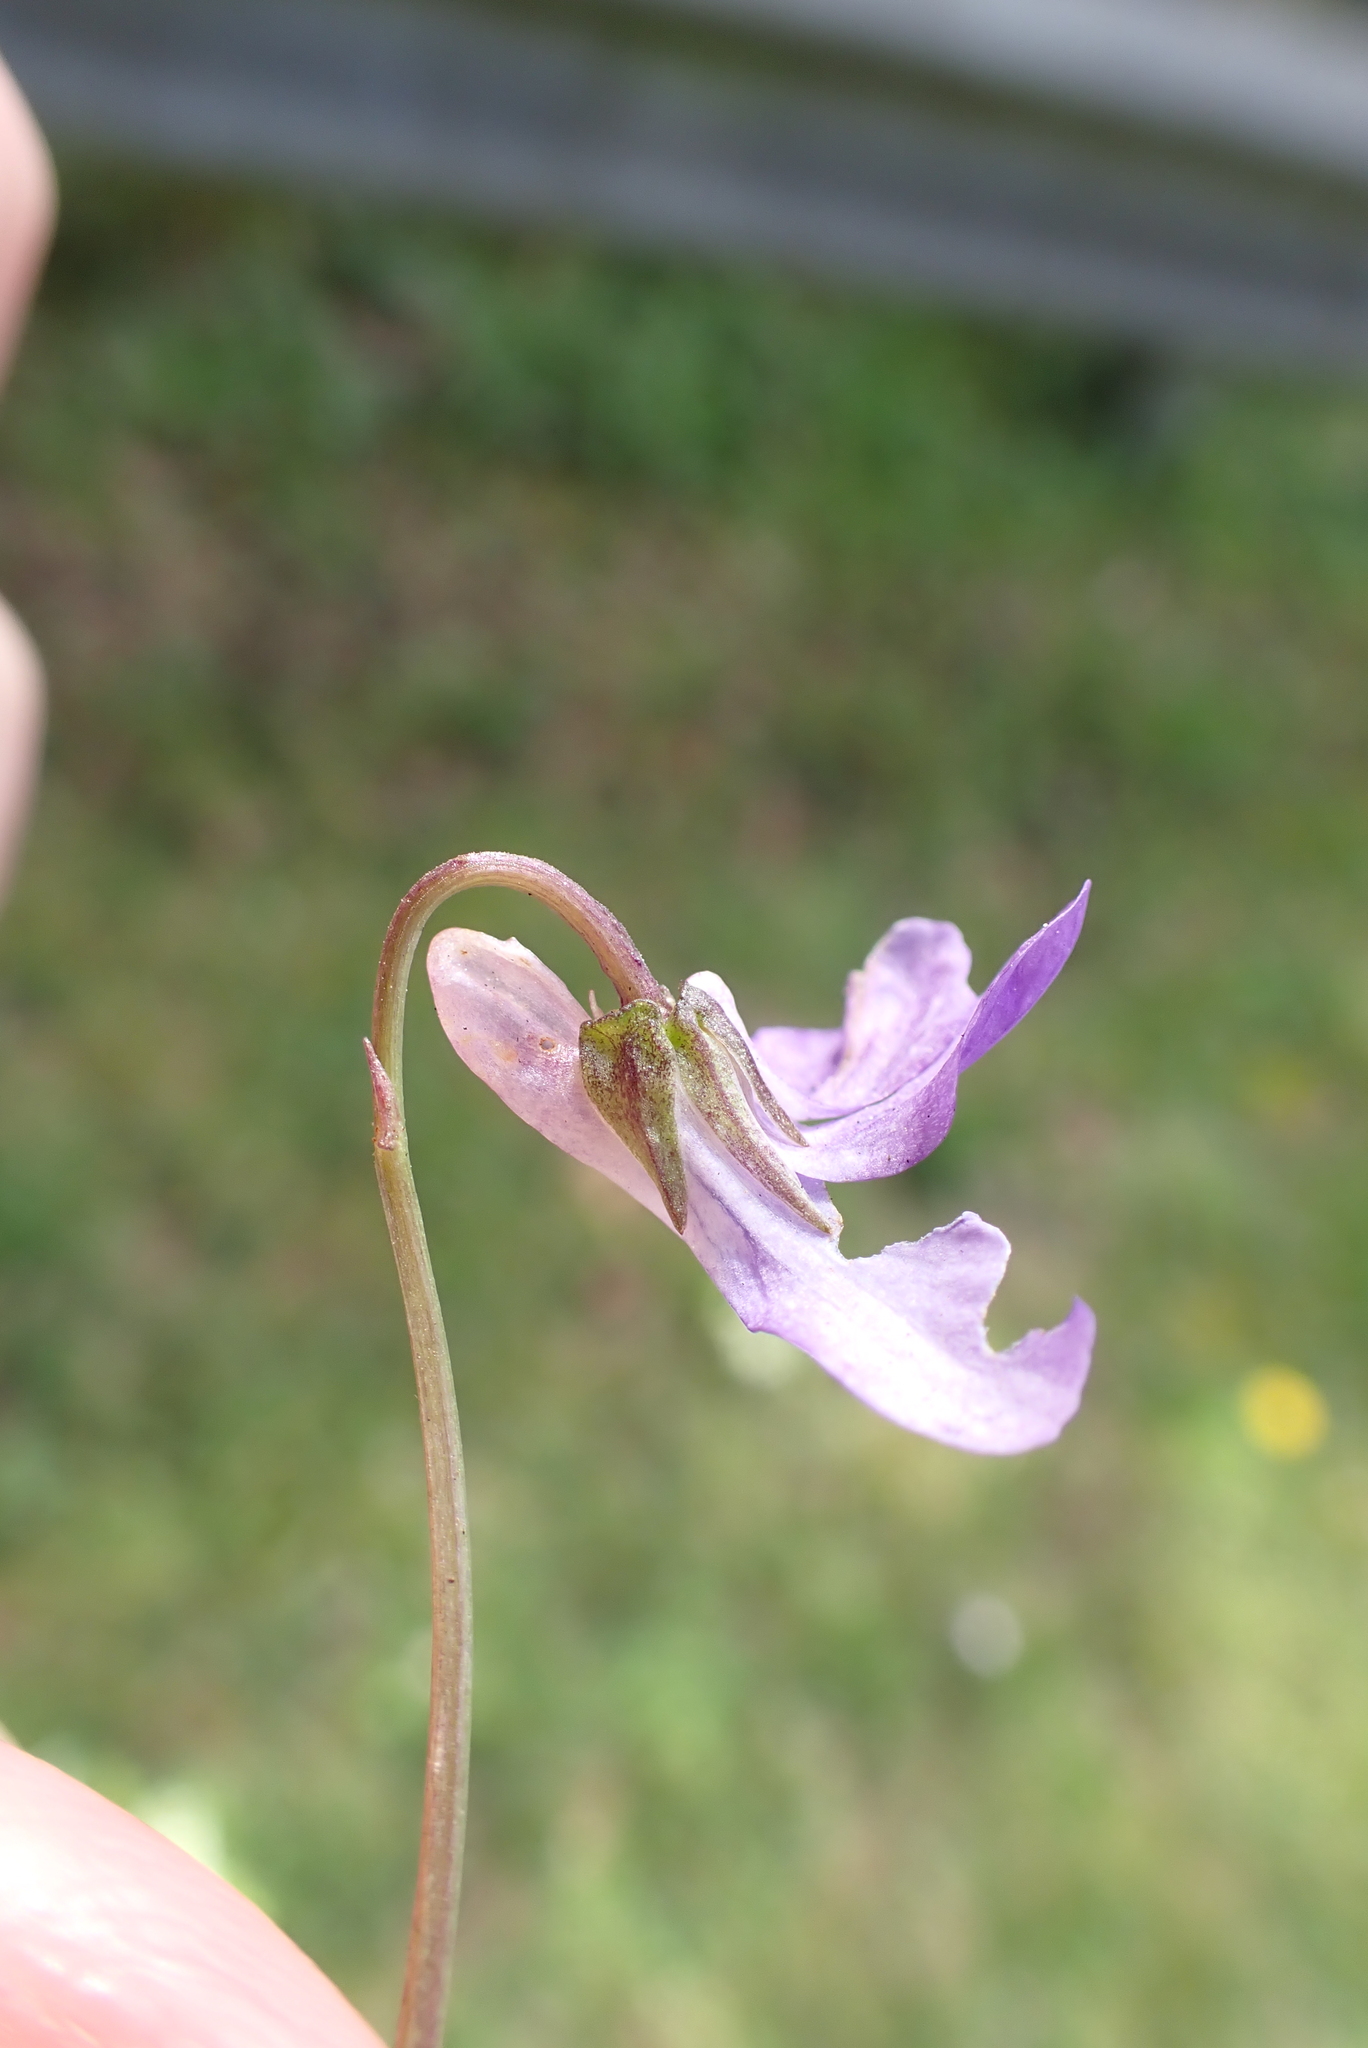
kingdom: Plantae
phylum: Tracheophyta
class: Magnoliopsida
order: Malpighiales
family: Violaceae
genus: Viola
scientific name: Viola riviniana
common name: Common dog-violet
